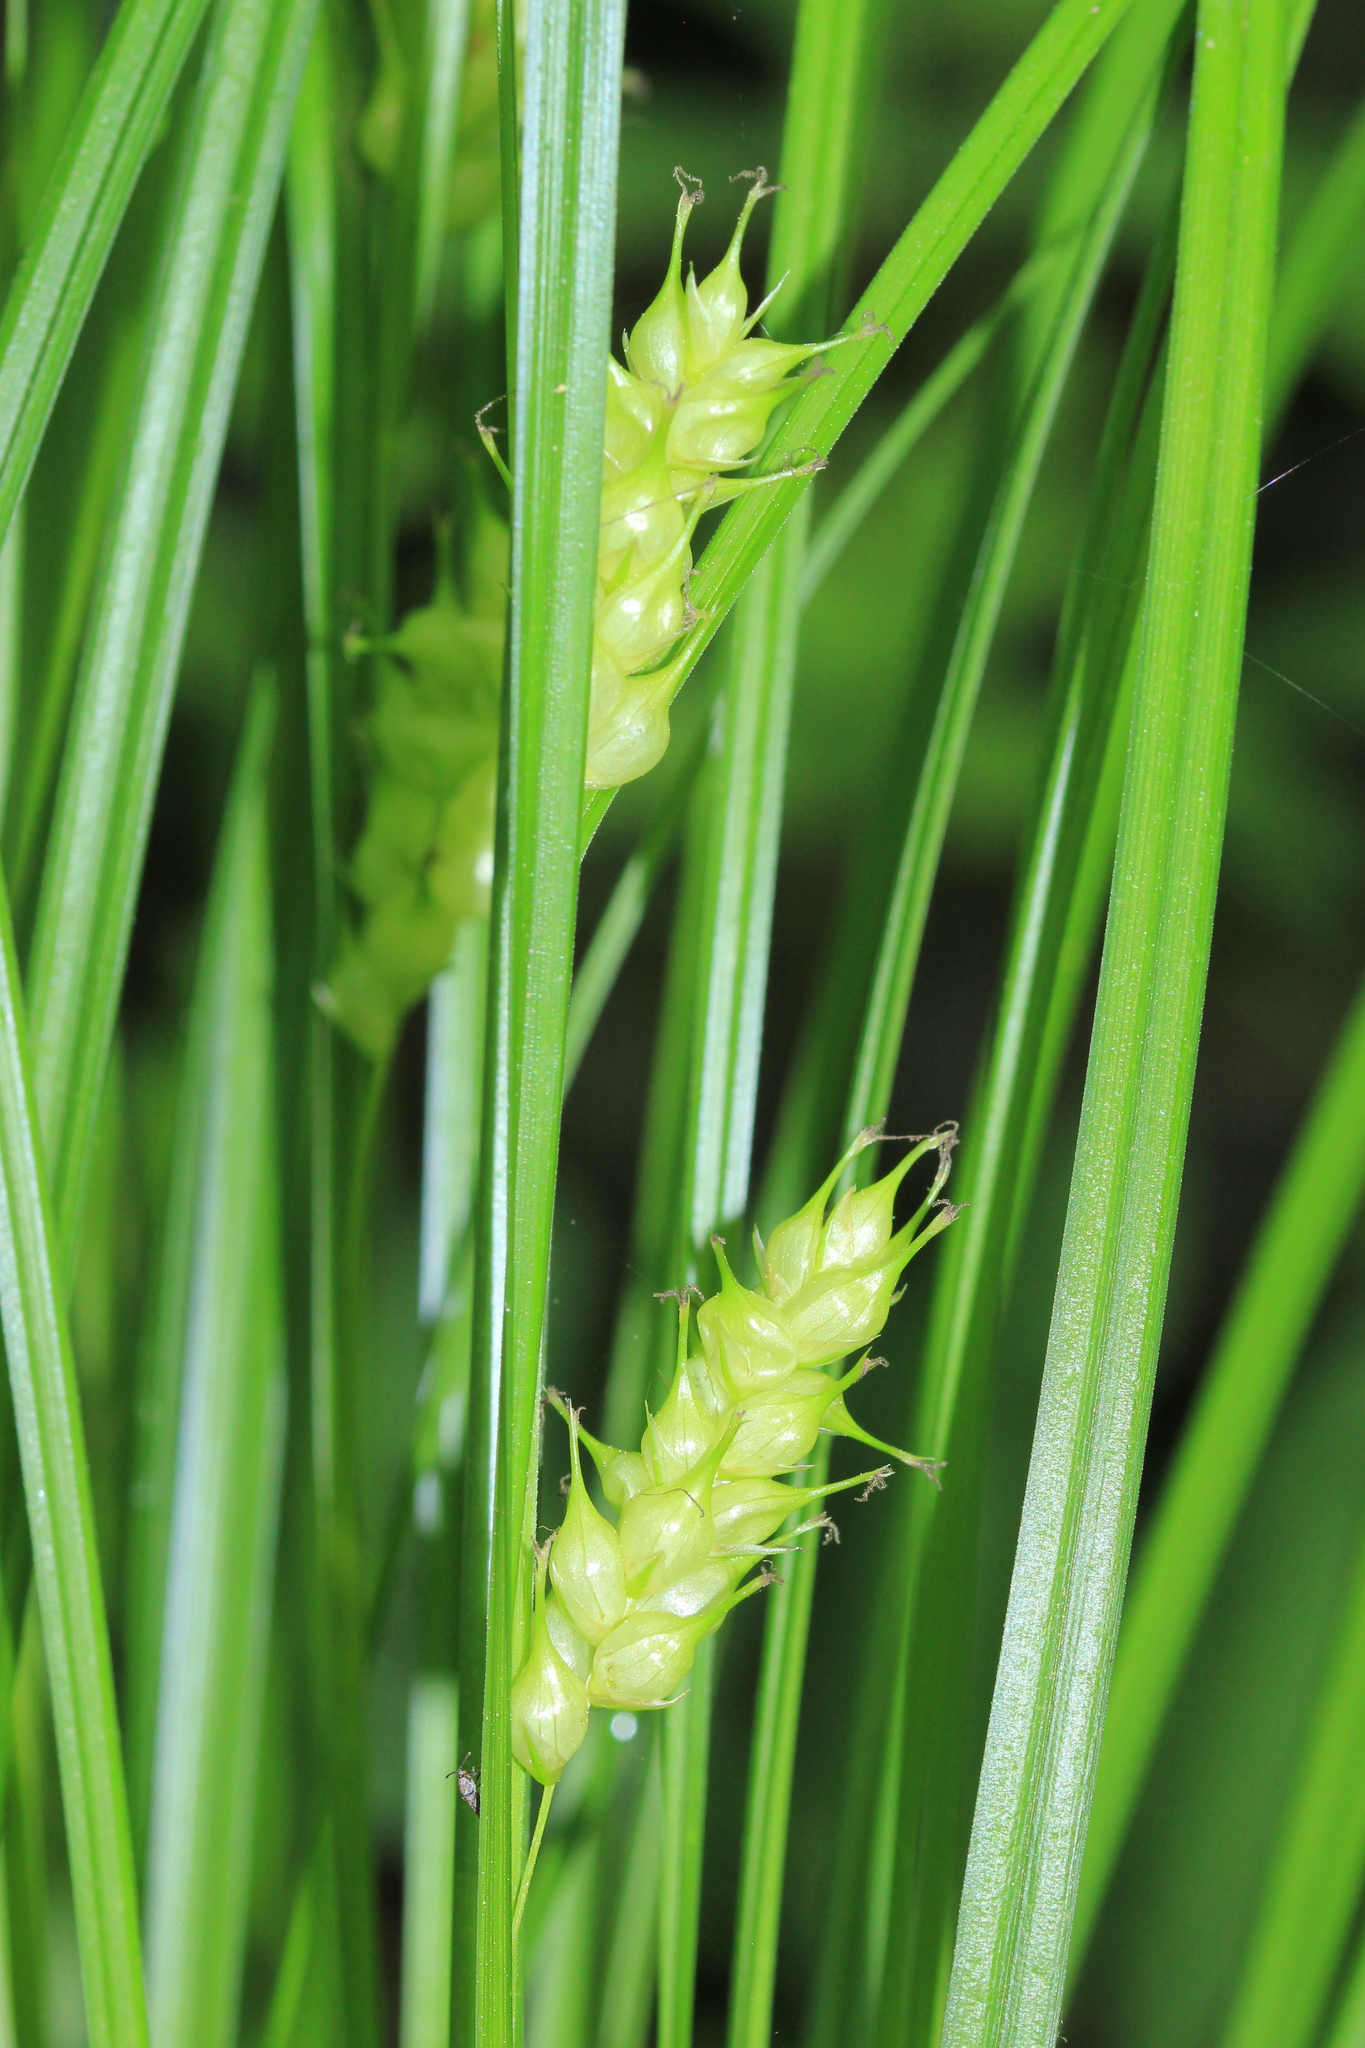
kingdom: Plantae
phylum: Tracheophyta
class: Liliopsida
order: Poales
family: Cyperaceae
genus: Carex
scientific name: Carex tuckermanii
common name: Tuckerman's sedge
